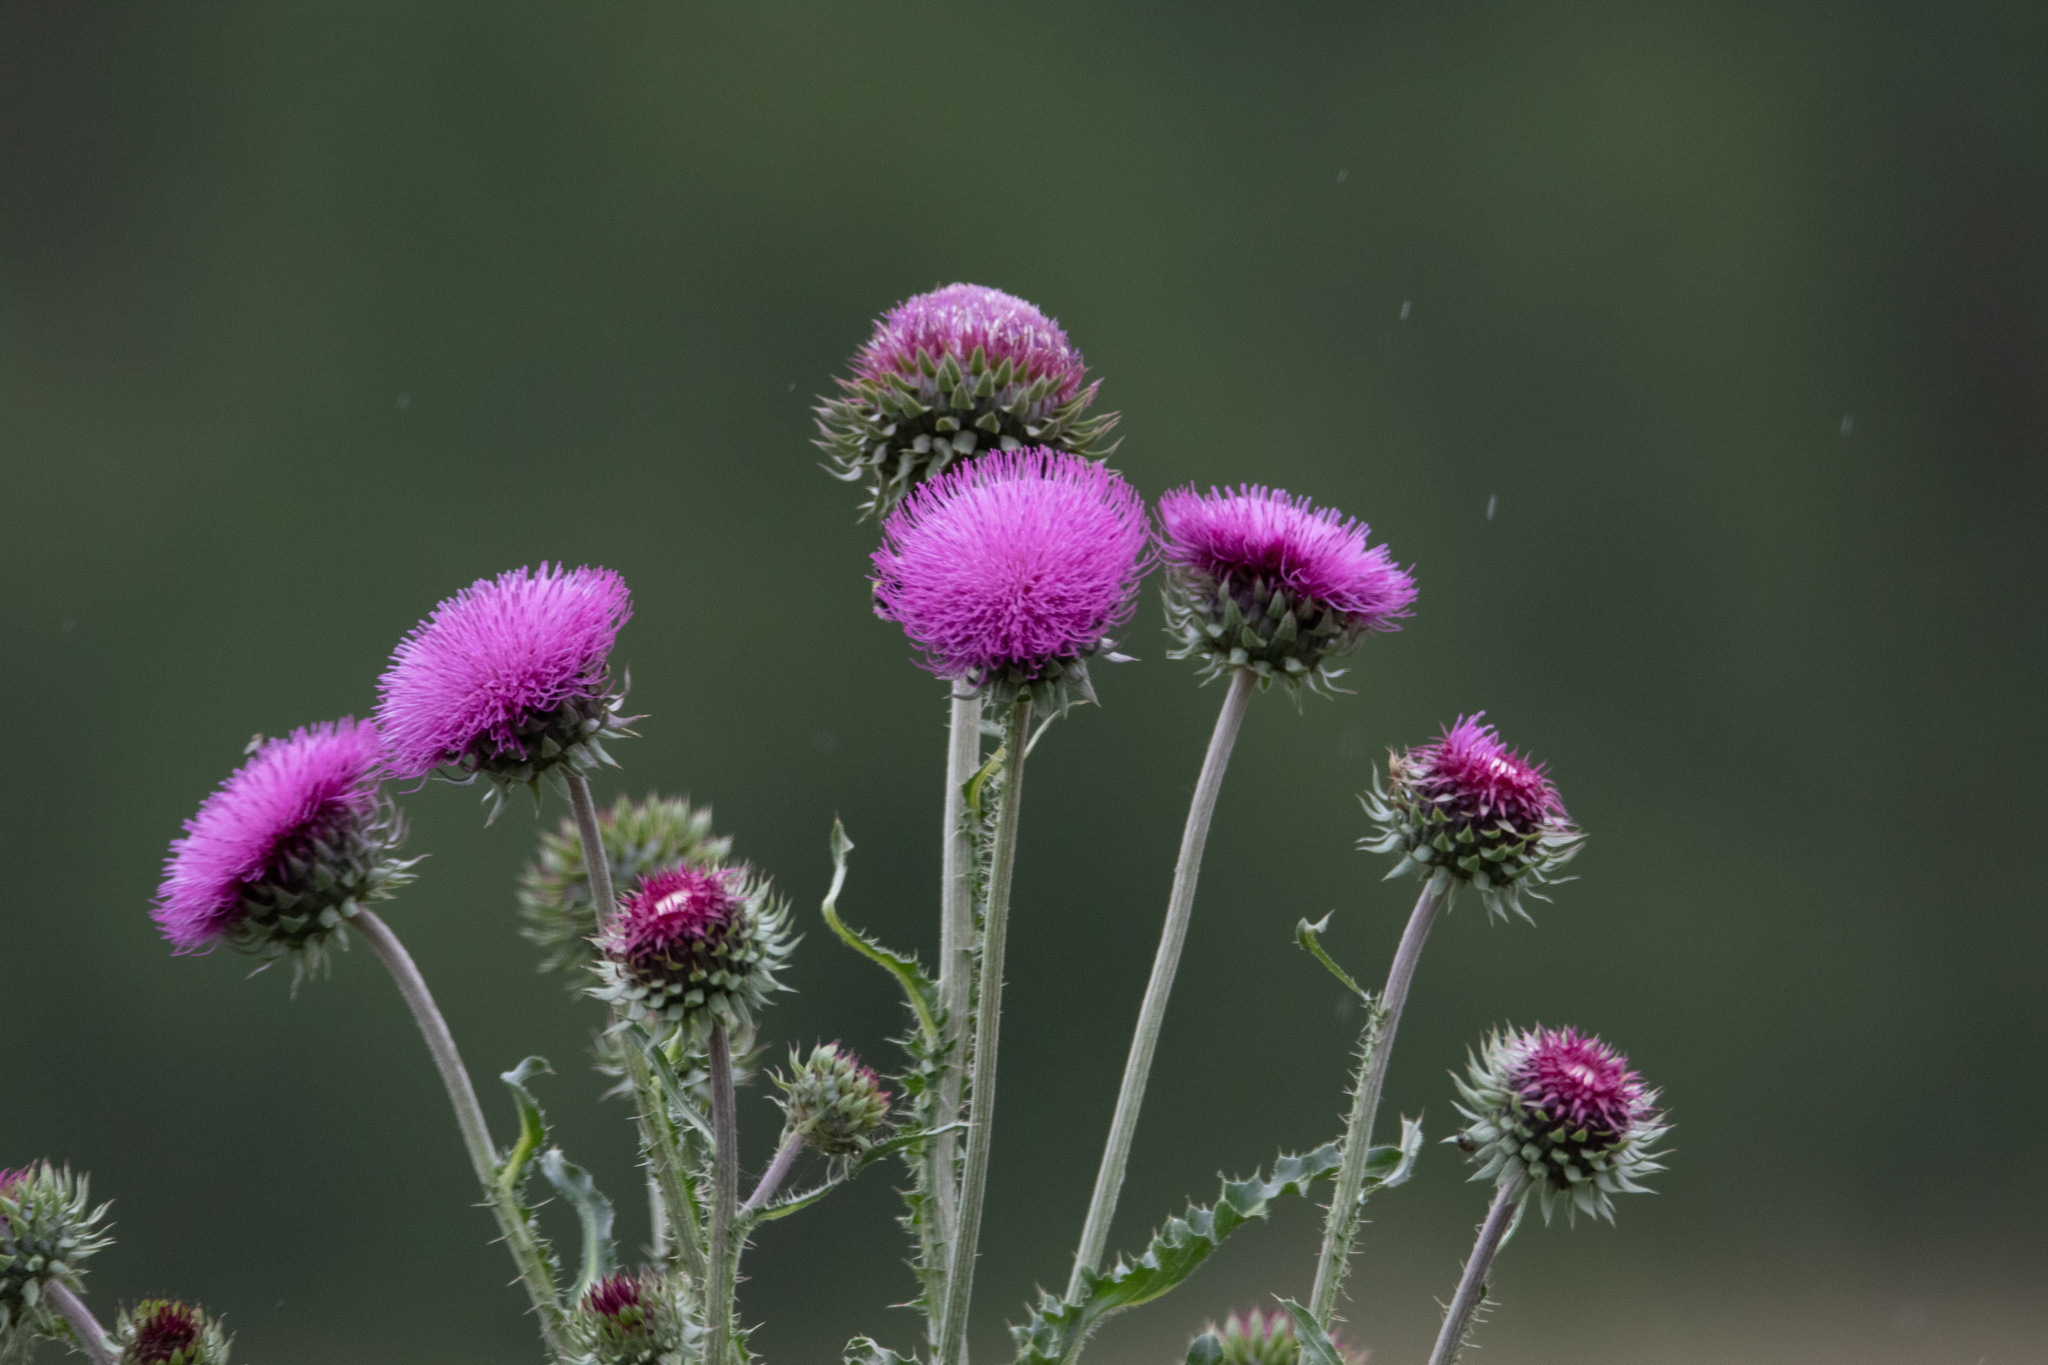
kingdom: Plantae
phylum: Tracheophyta
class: Magnoliopsida
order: Asterales
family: Asteraceae
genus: Carduus
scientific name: Carduus nutans
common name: Musk thistle
